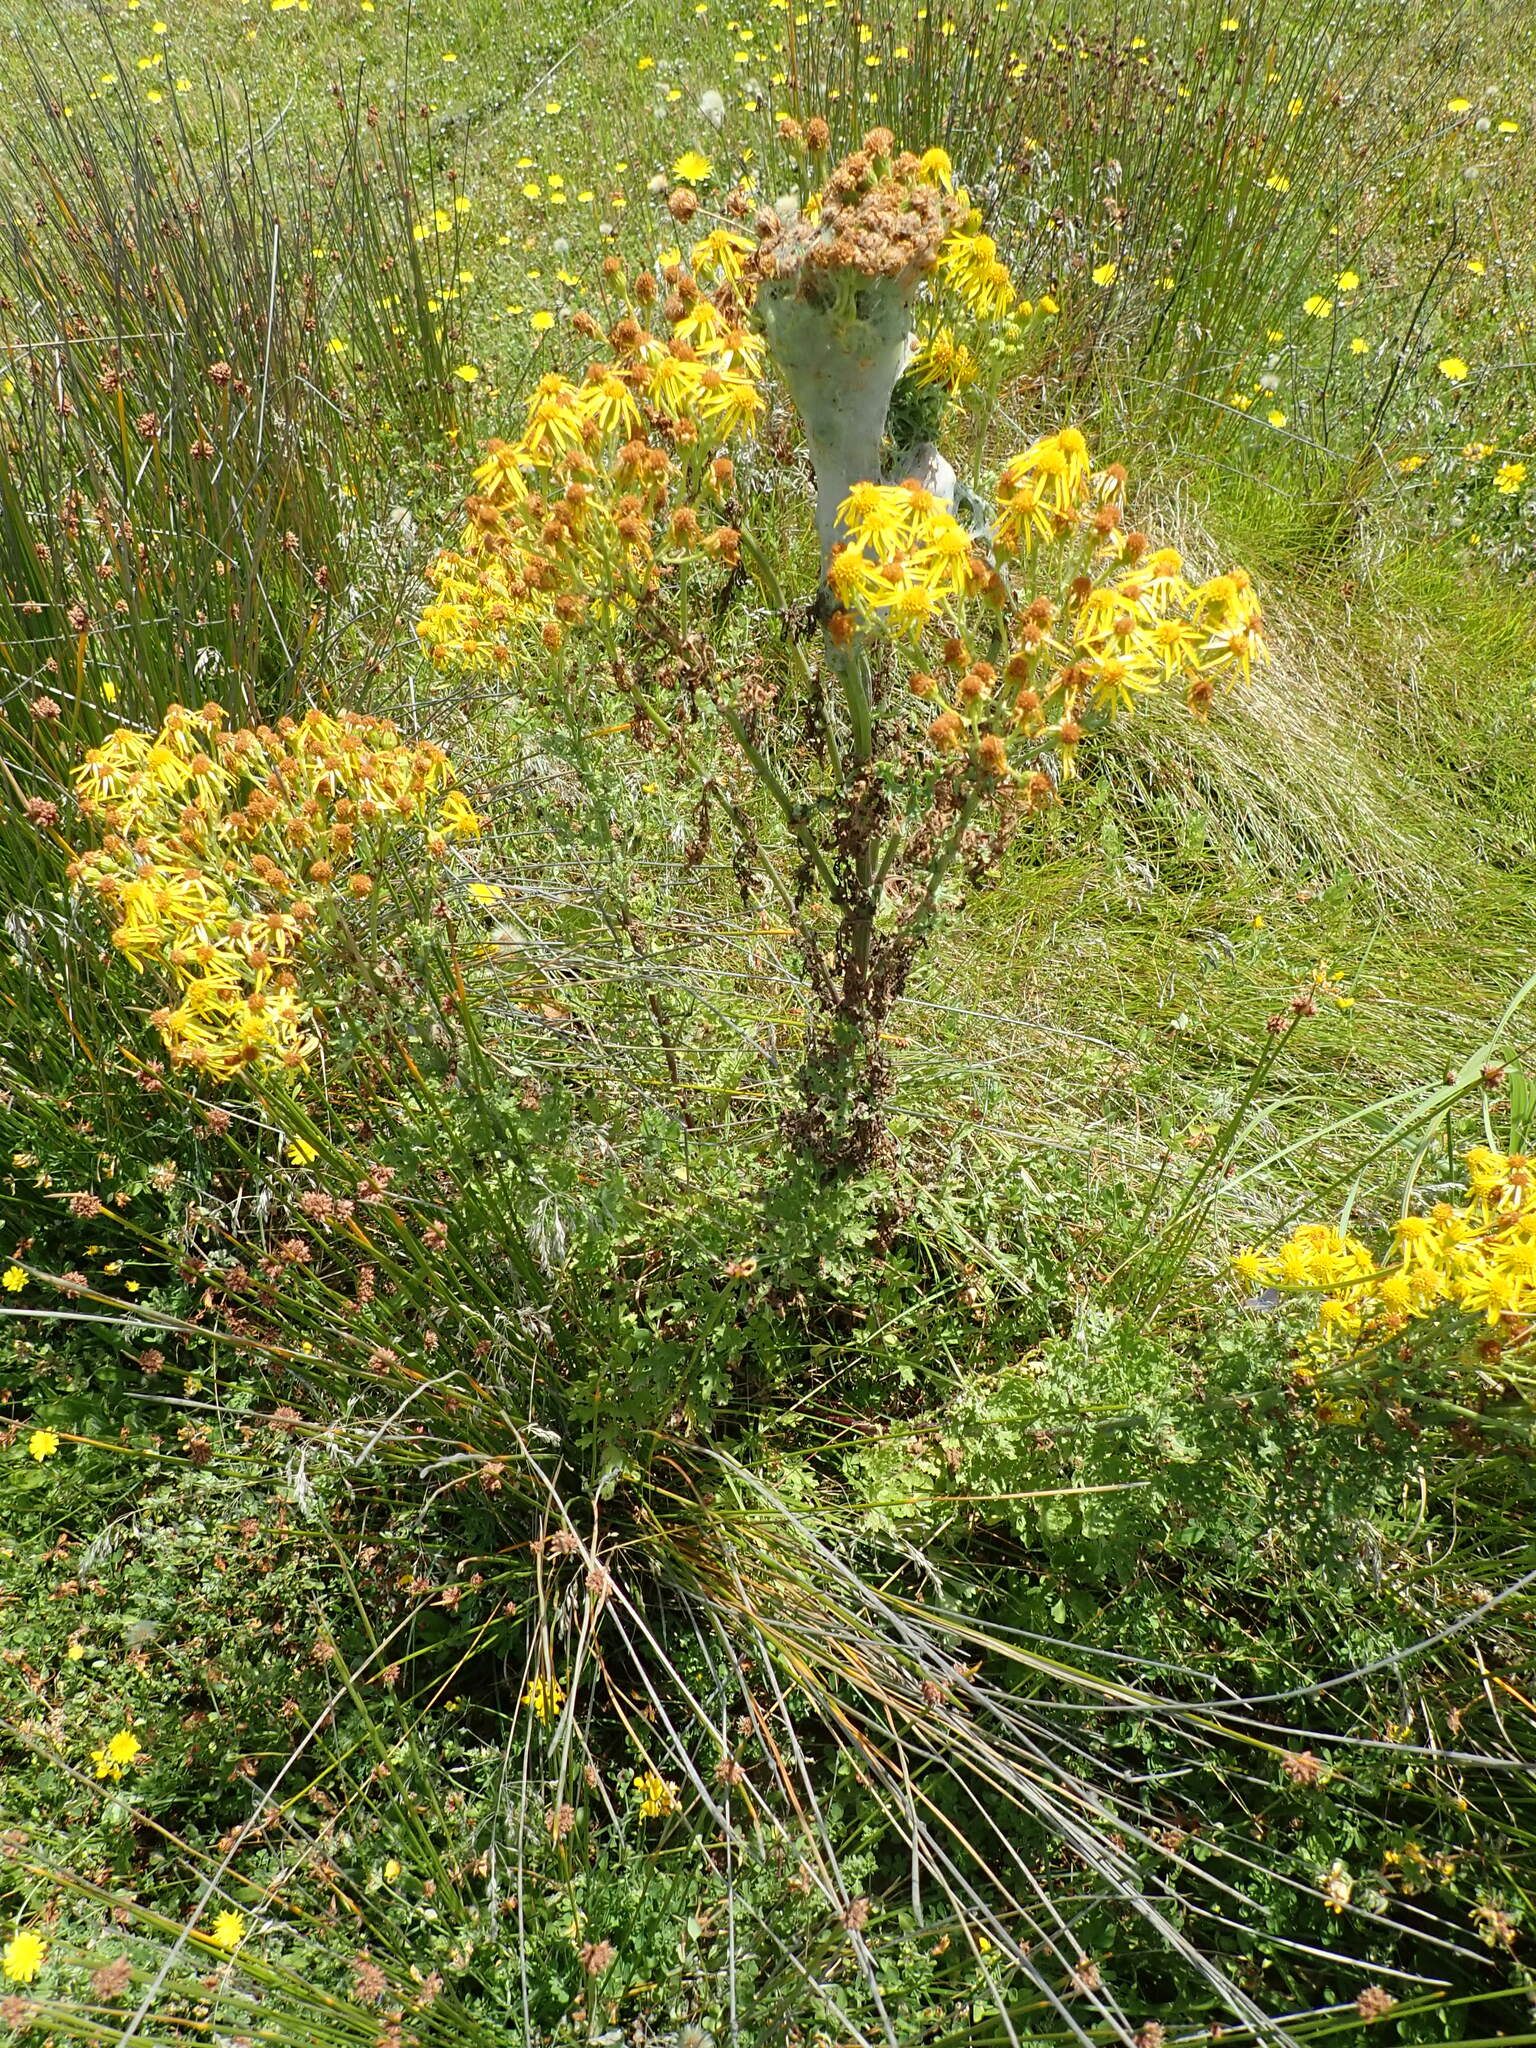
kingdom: Plantae
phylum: Tracheophyta
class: Magnoliopsida
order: Asterales
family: Asteraceae
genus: Jacobaea
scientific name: Jacobaea vulgaris
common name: Stinking willie
